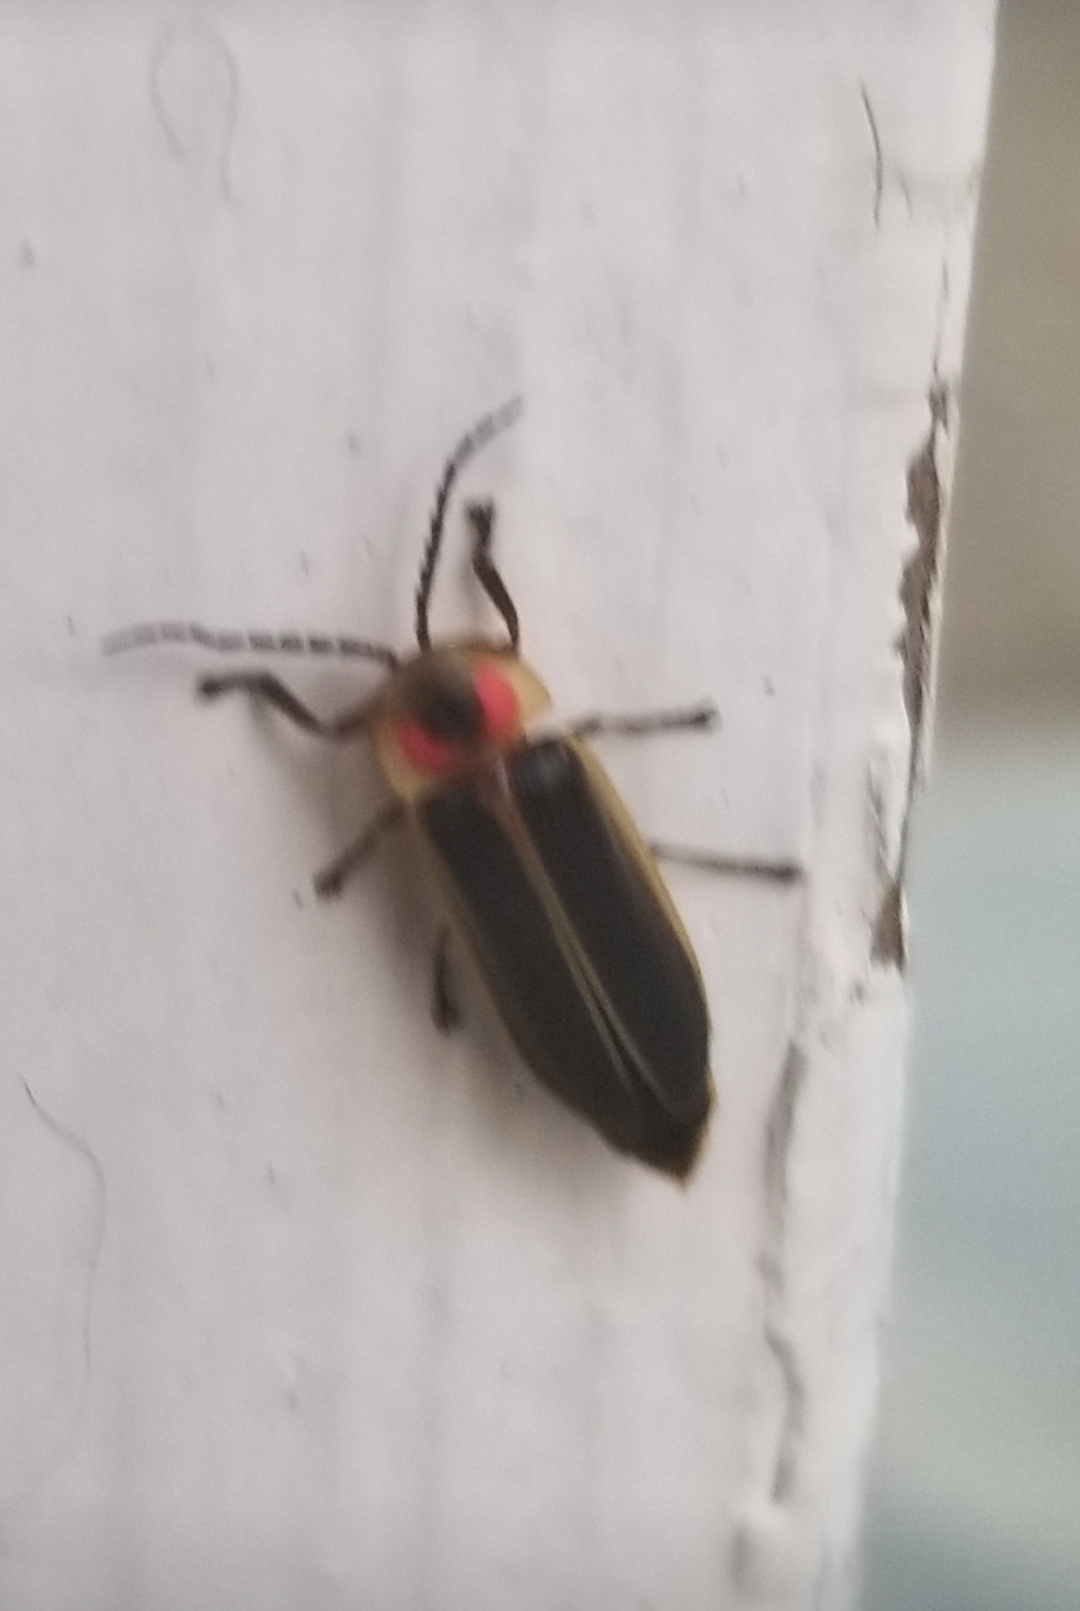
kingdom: Animalia
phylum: Arthropoda
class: Insecta
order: Coleoptera
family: Lampyridae
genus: Photinus
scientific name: Photinus pyralis
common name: Big dipper firefly
